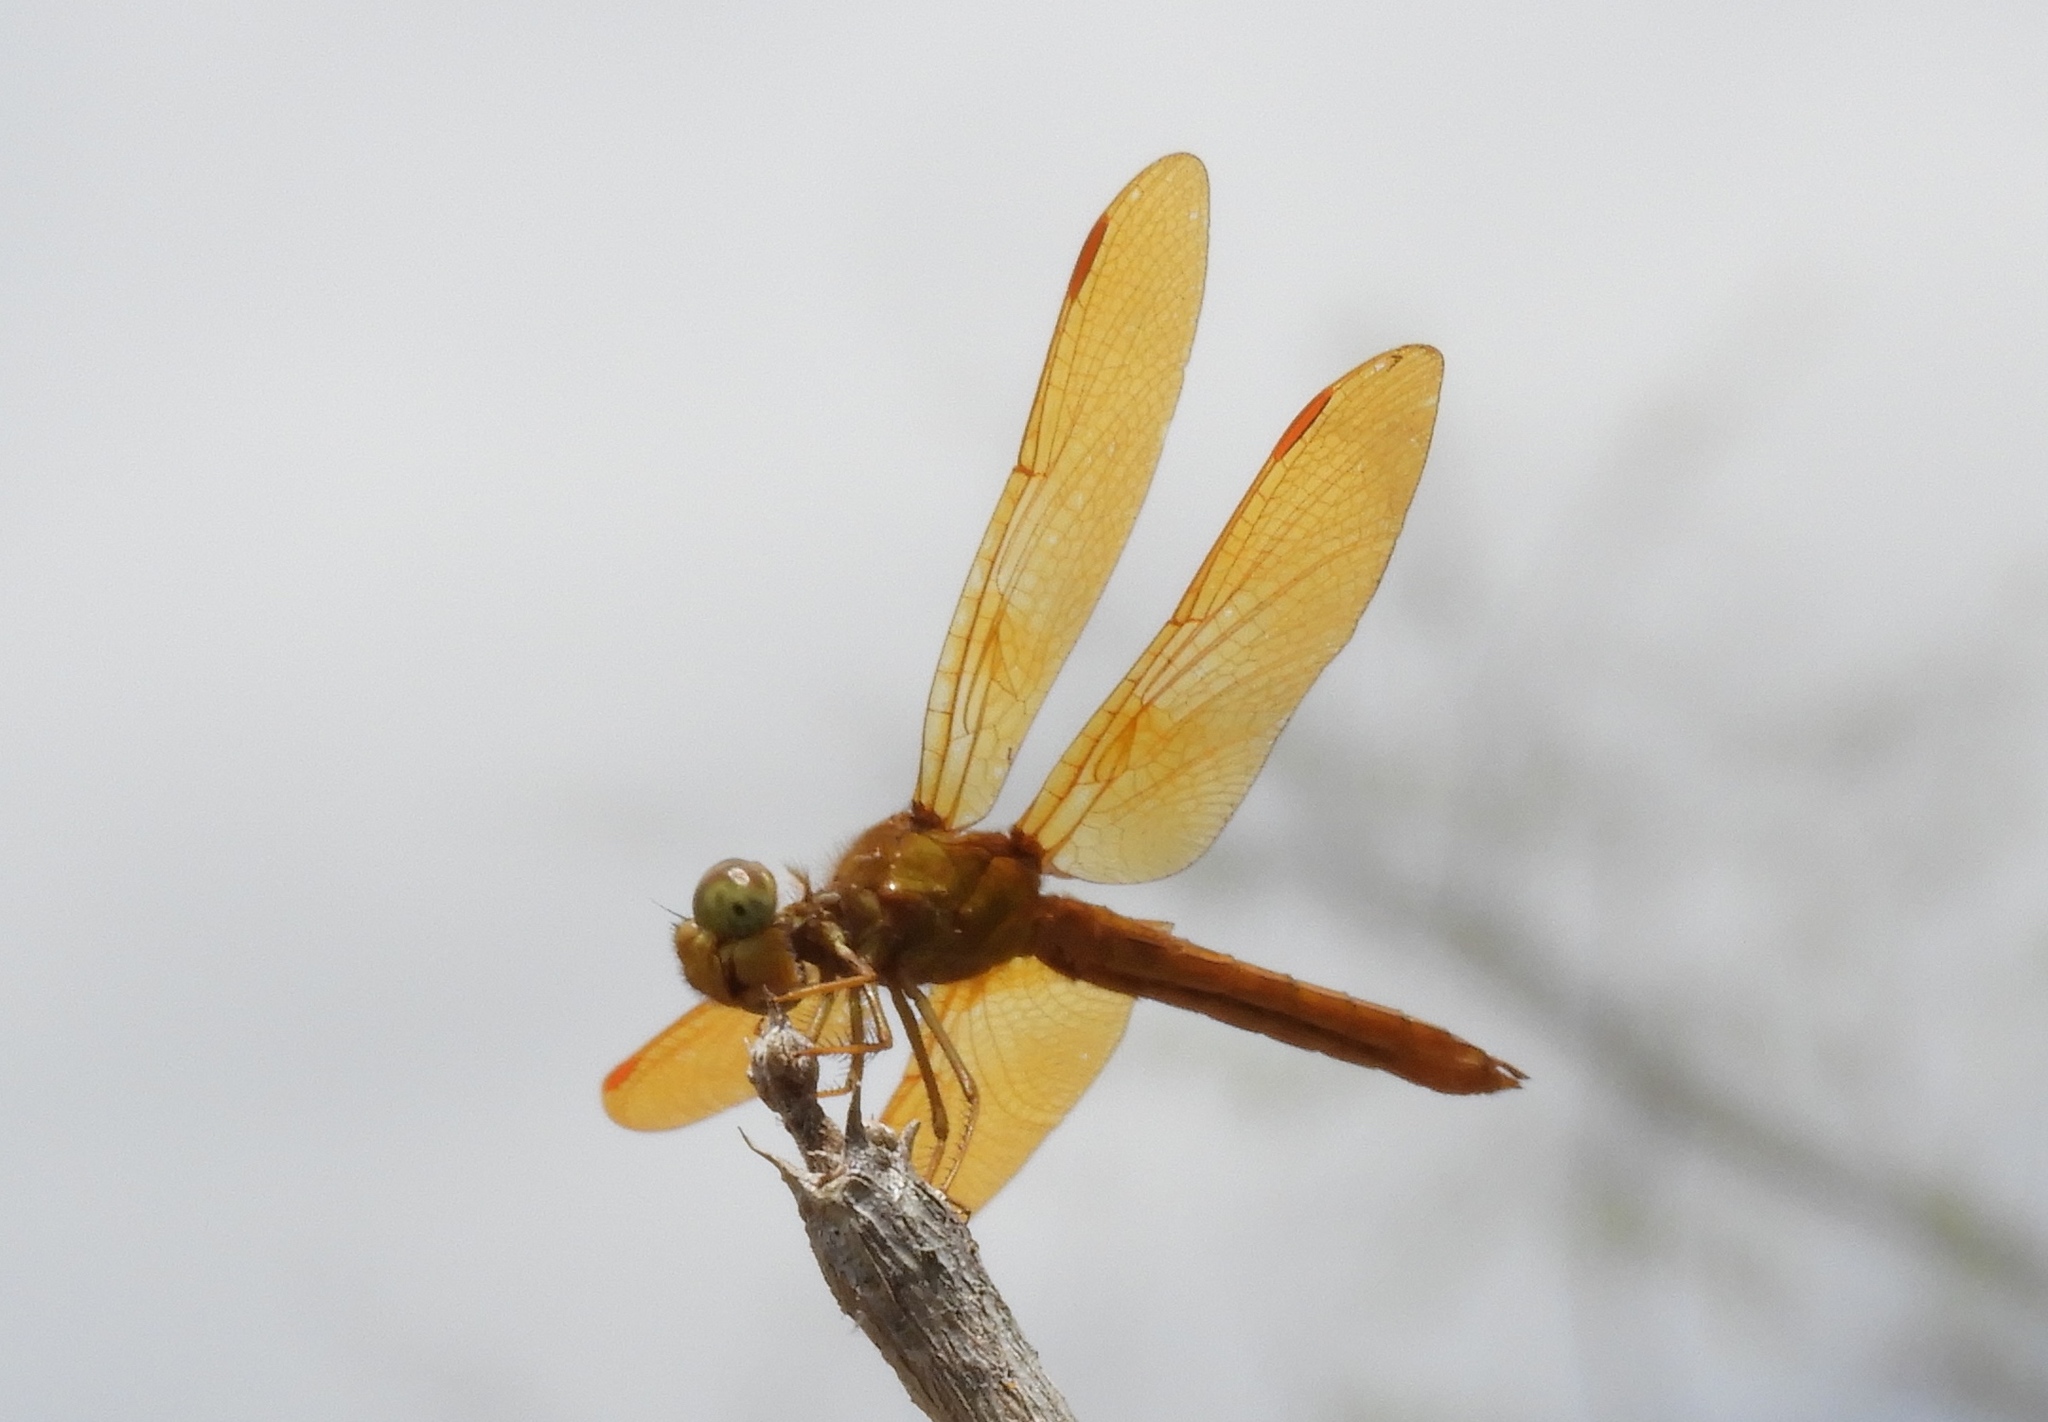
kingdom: Animalia
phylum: Arthropoda
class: Insecta
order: Odonata
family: Libellulidae
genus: Perithemis
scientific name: Perithemis
